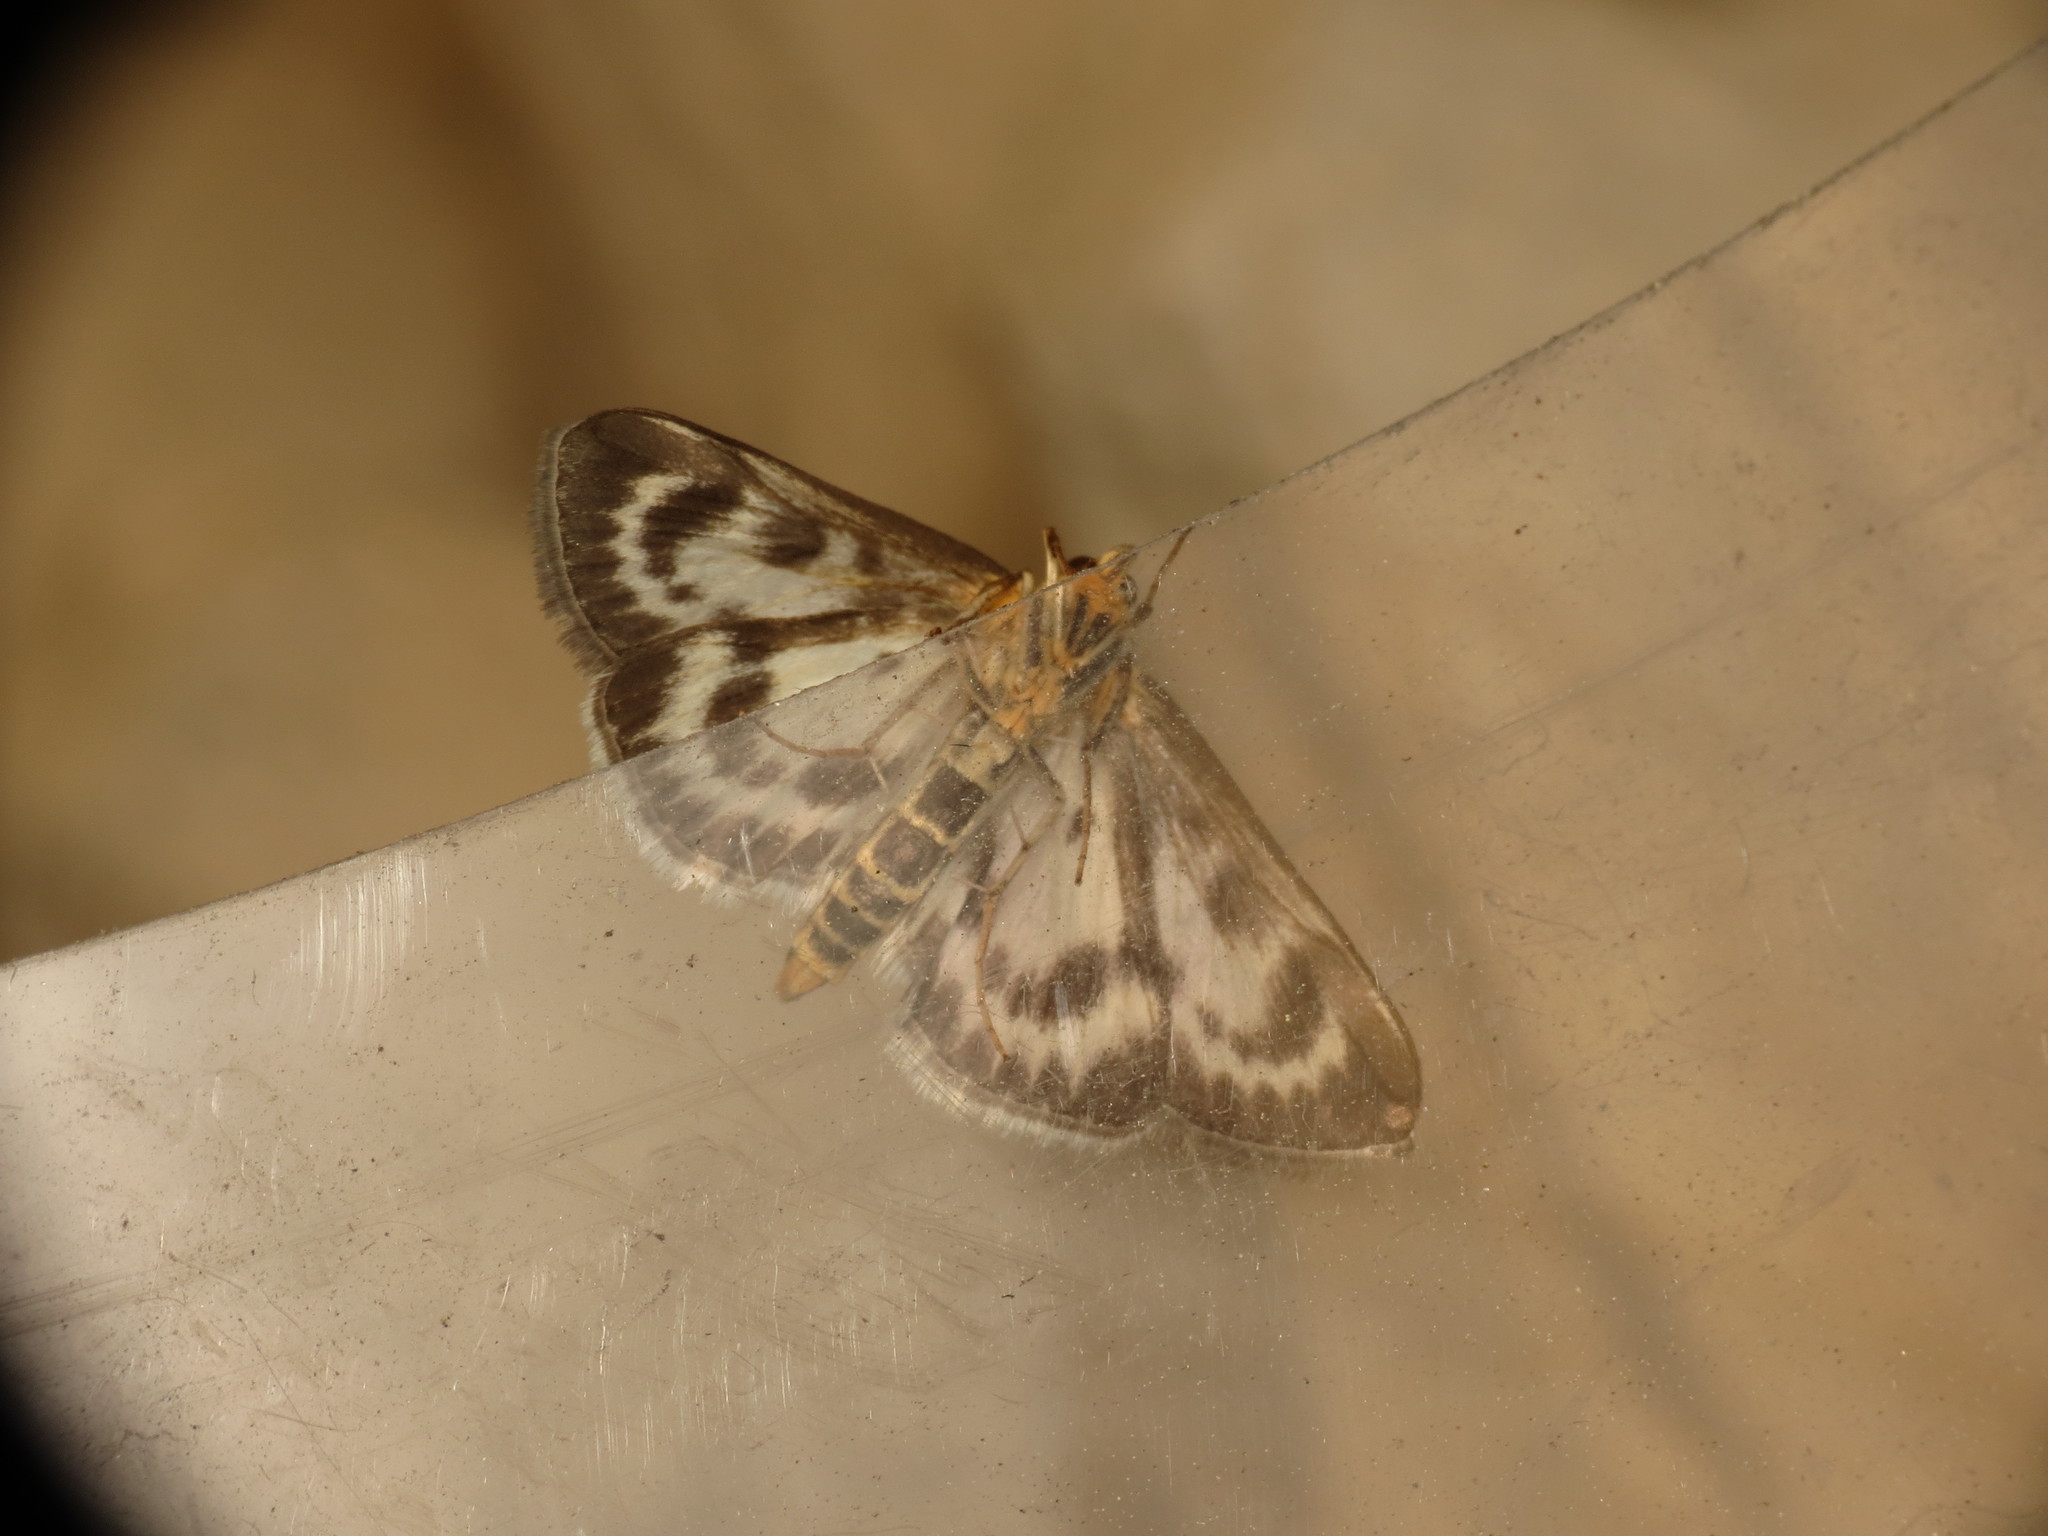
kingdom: Animalia
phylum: Arthropoda
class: Insecta
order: Lepidoptera
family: Crambidae
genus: Anania
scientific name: Anania hortulata
